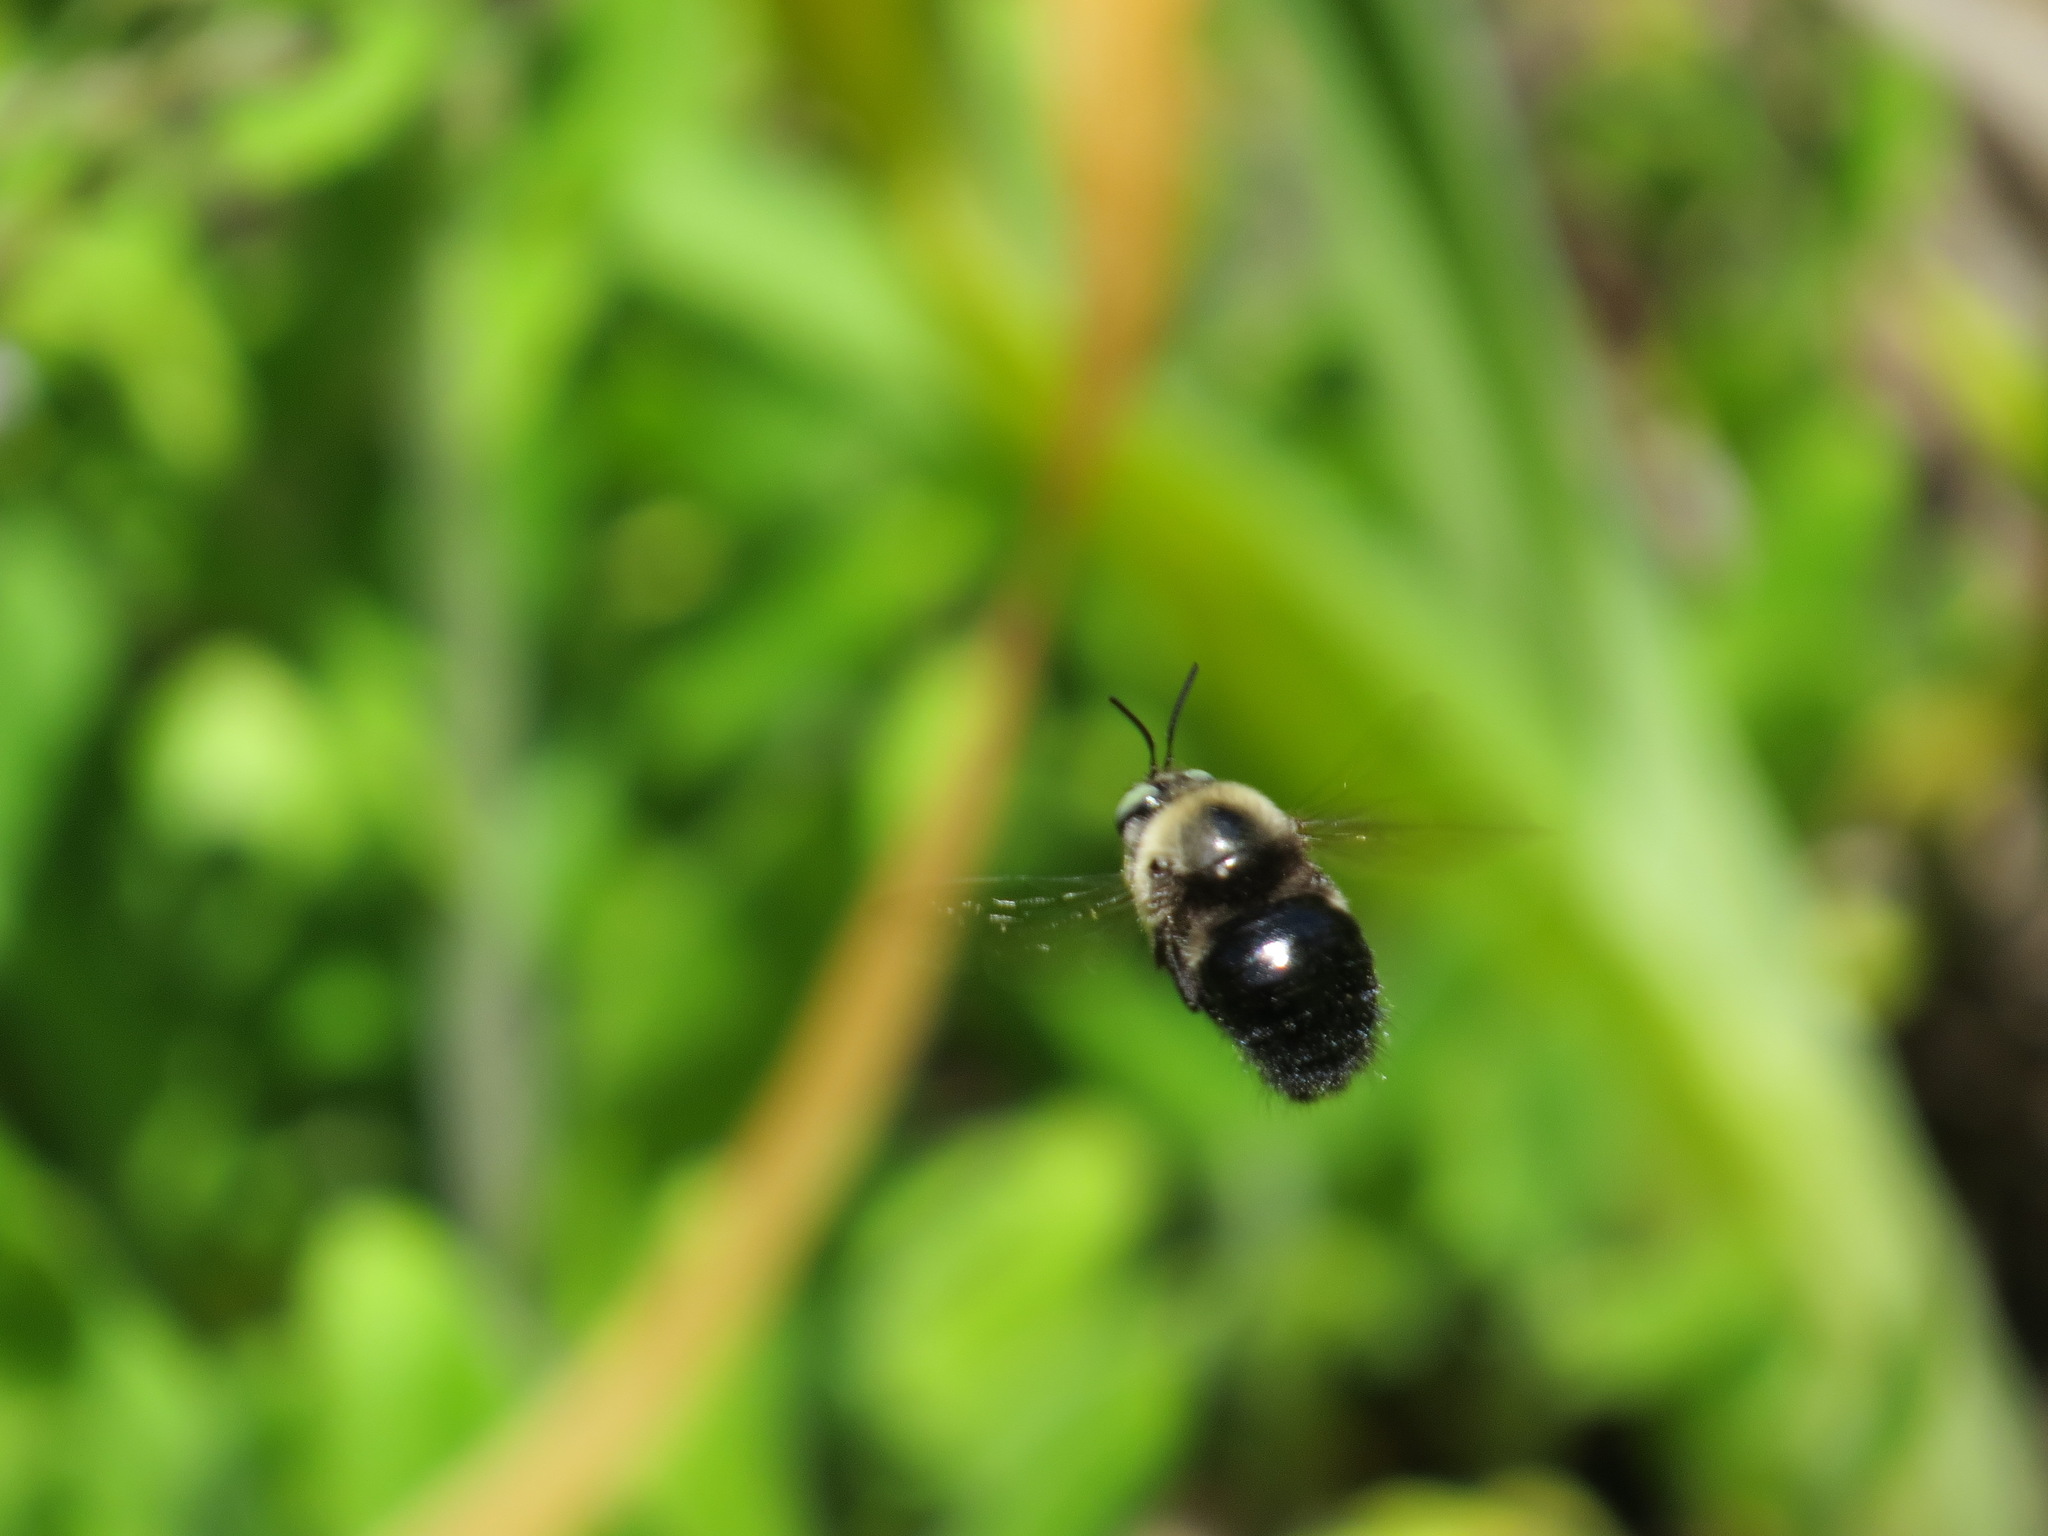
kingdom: Animalia
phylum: Arthropoda
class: Insecta
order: Hymenoptera
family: Apidae
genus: Xylocopa
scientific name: Xylocopa tabaniformis
